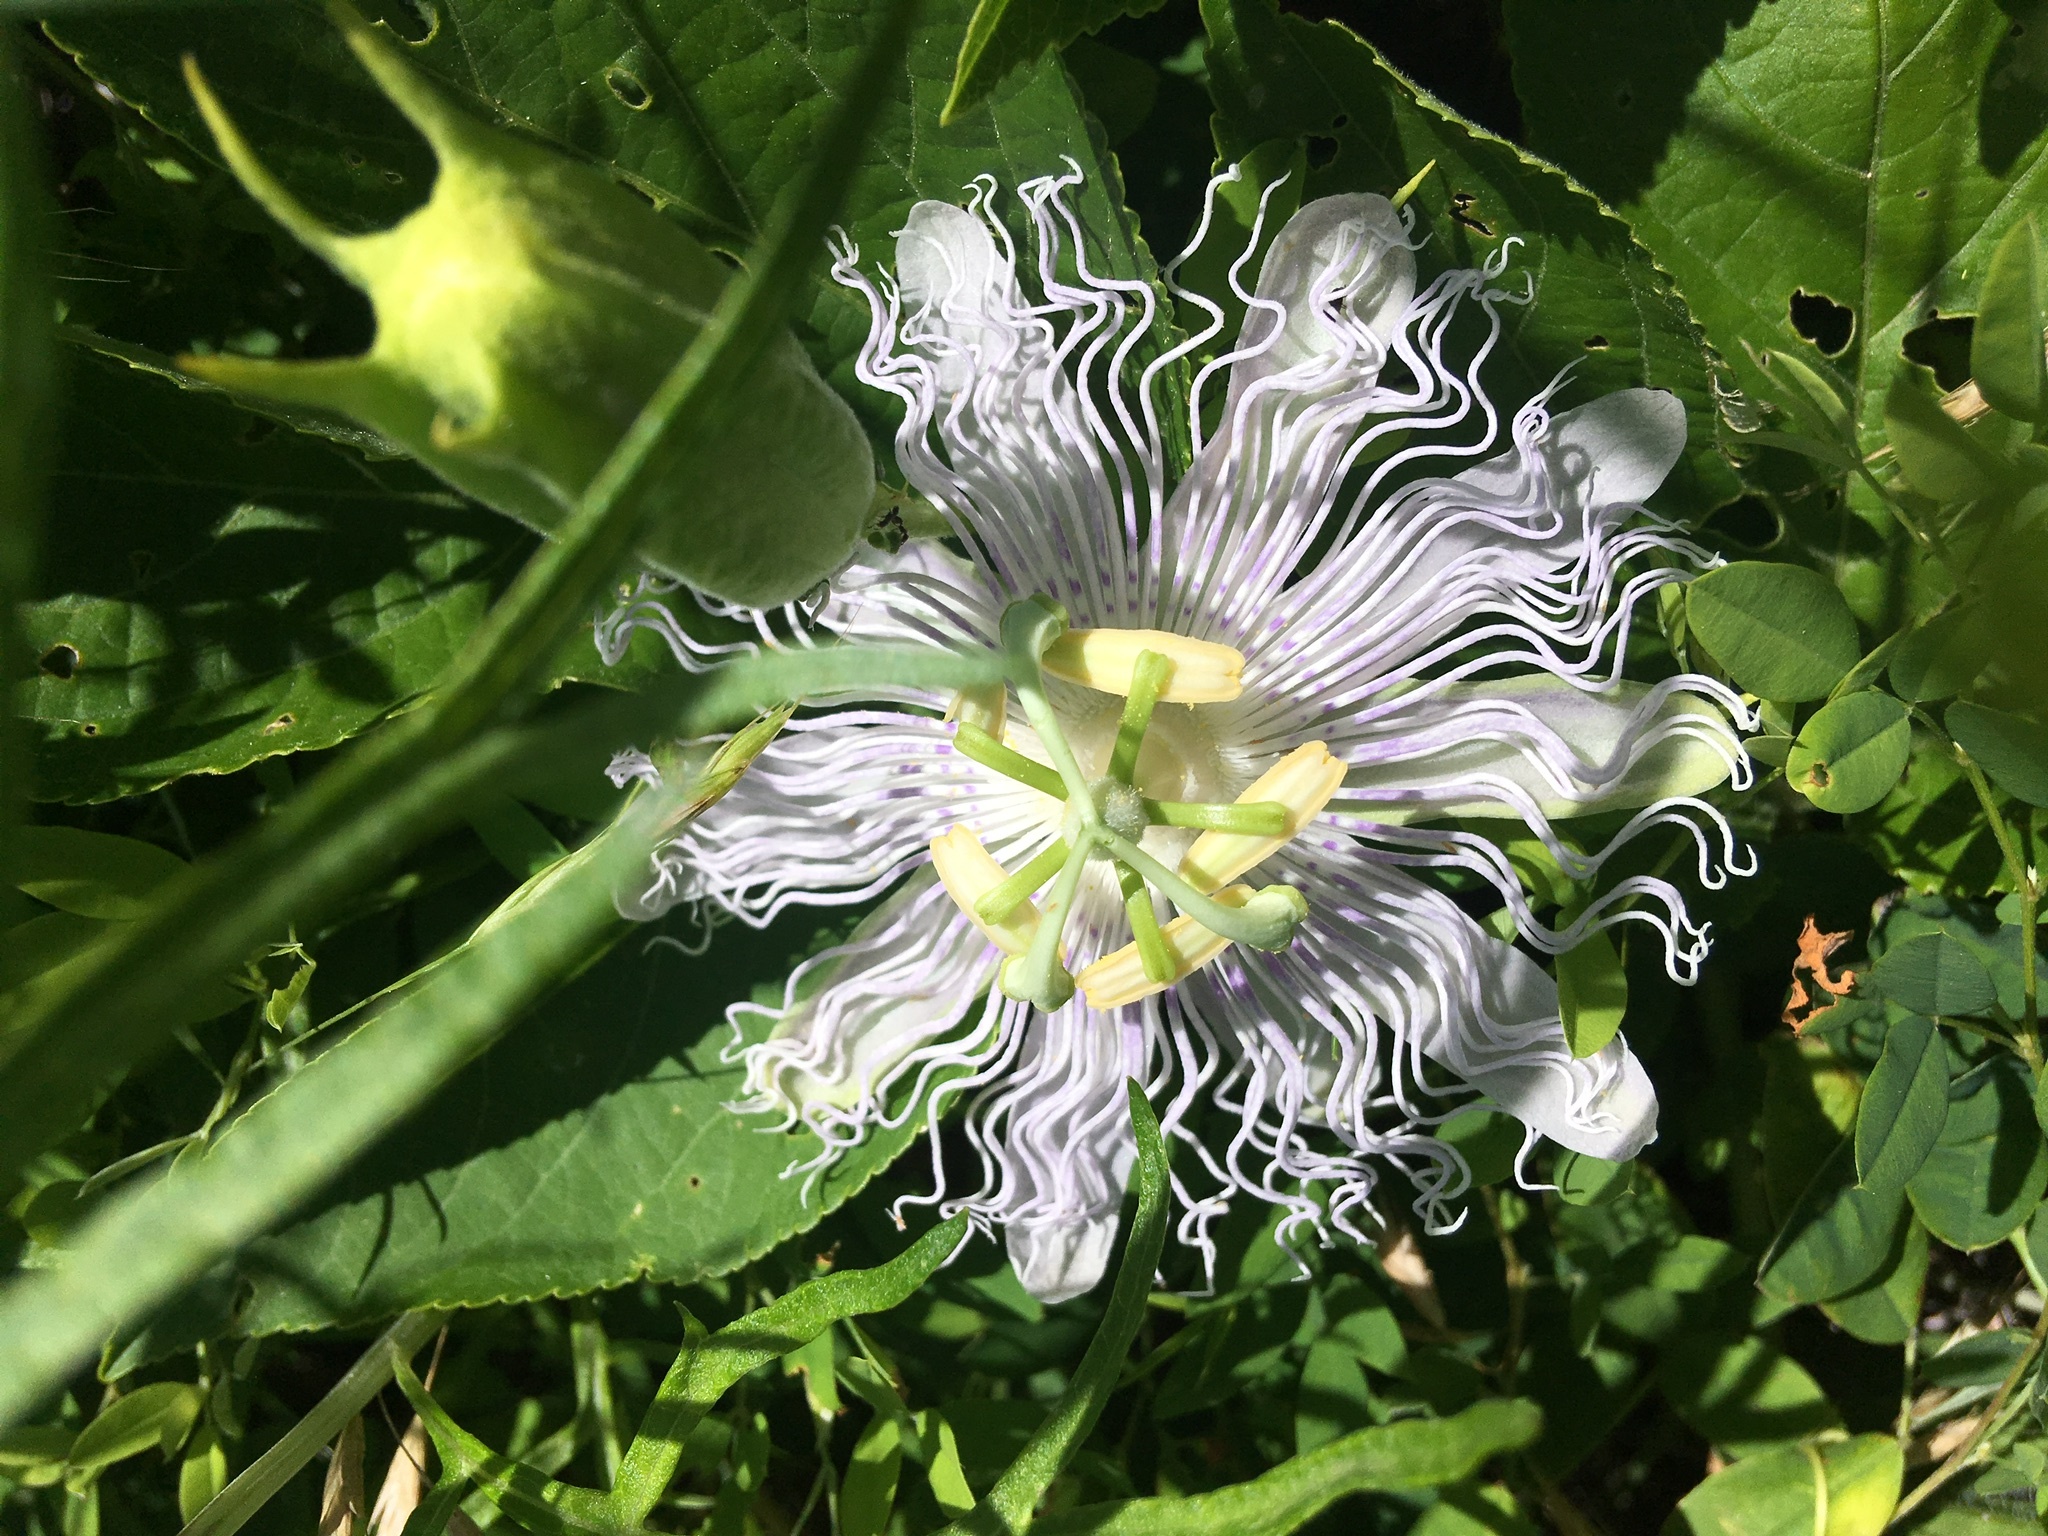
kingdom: Plantae
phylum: Tracheophyta
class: Magnoliopsida
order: Malpighiales
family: Passifloraceae
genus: Passiflora
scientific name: Passiflora incarnata
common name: Apricot-vine
